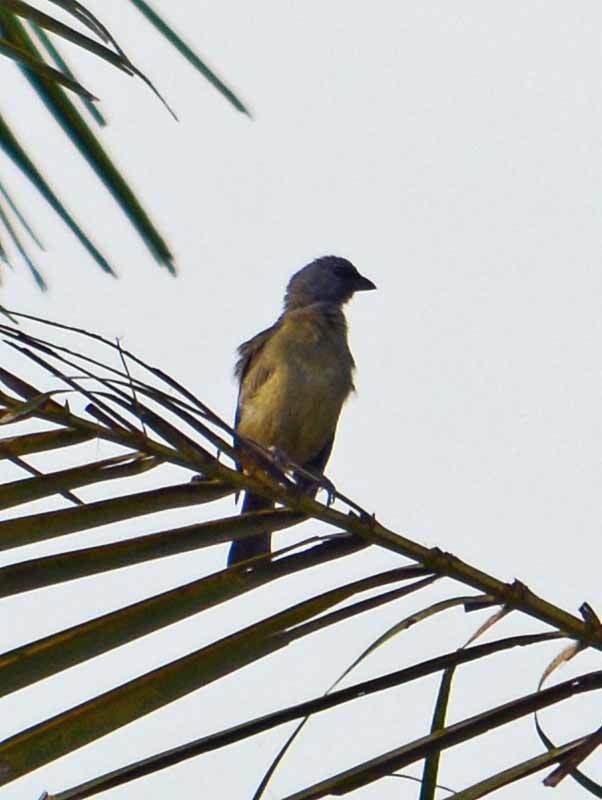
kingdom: Animalia
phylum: Chordata
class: Aves
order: Passeriformes
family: Thraupidae
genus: Thraupis
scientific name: Thraupis abbas
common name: Yellow-winged tanager
